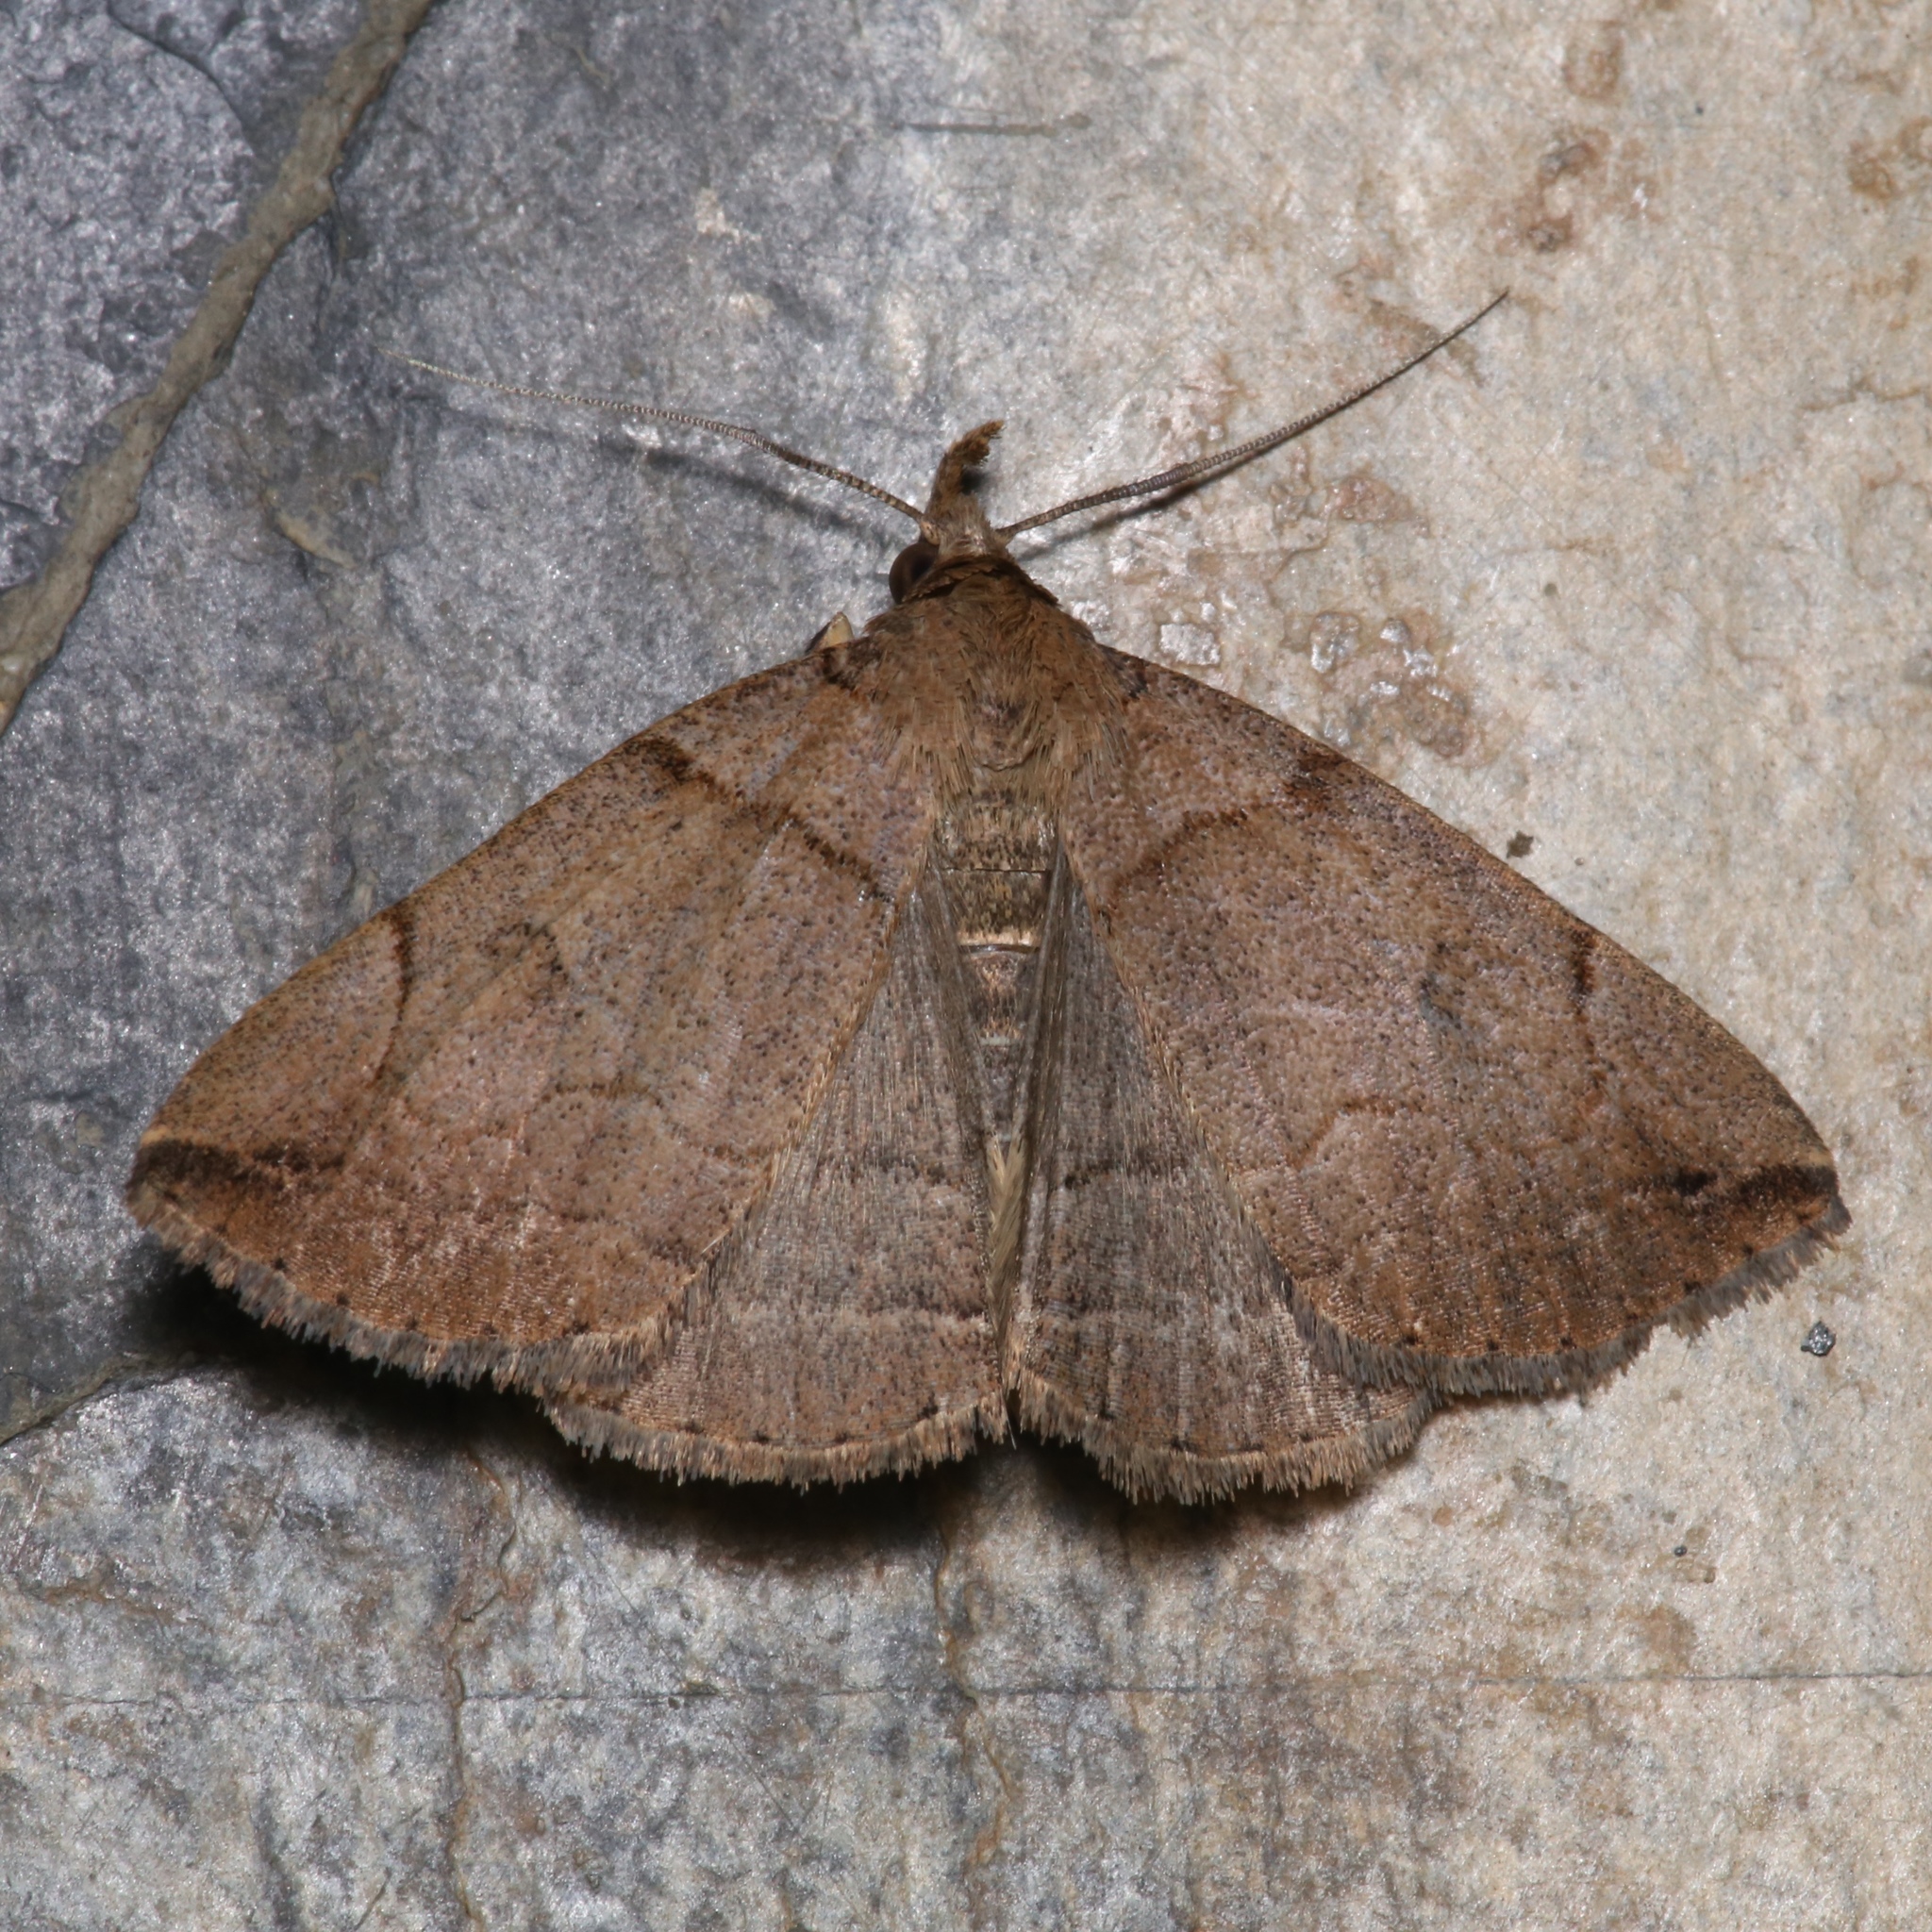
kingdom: Animalia
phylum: Arthropoda
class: Insecta
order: Lepidoptera
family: Erebidae
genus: Zanclognatha
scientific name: Zanclognatha laevigata
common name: Variable fan-foot
